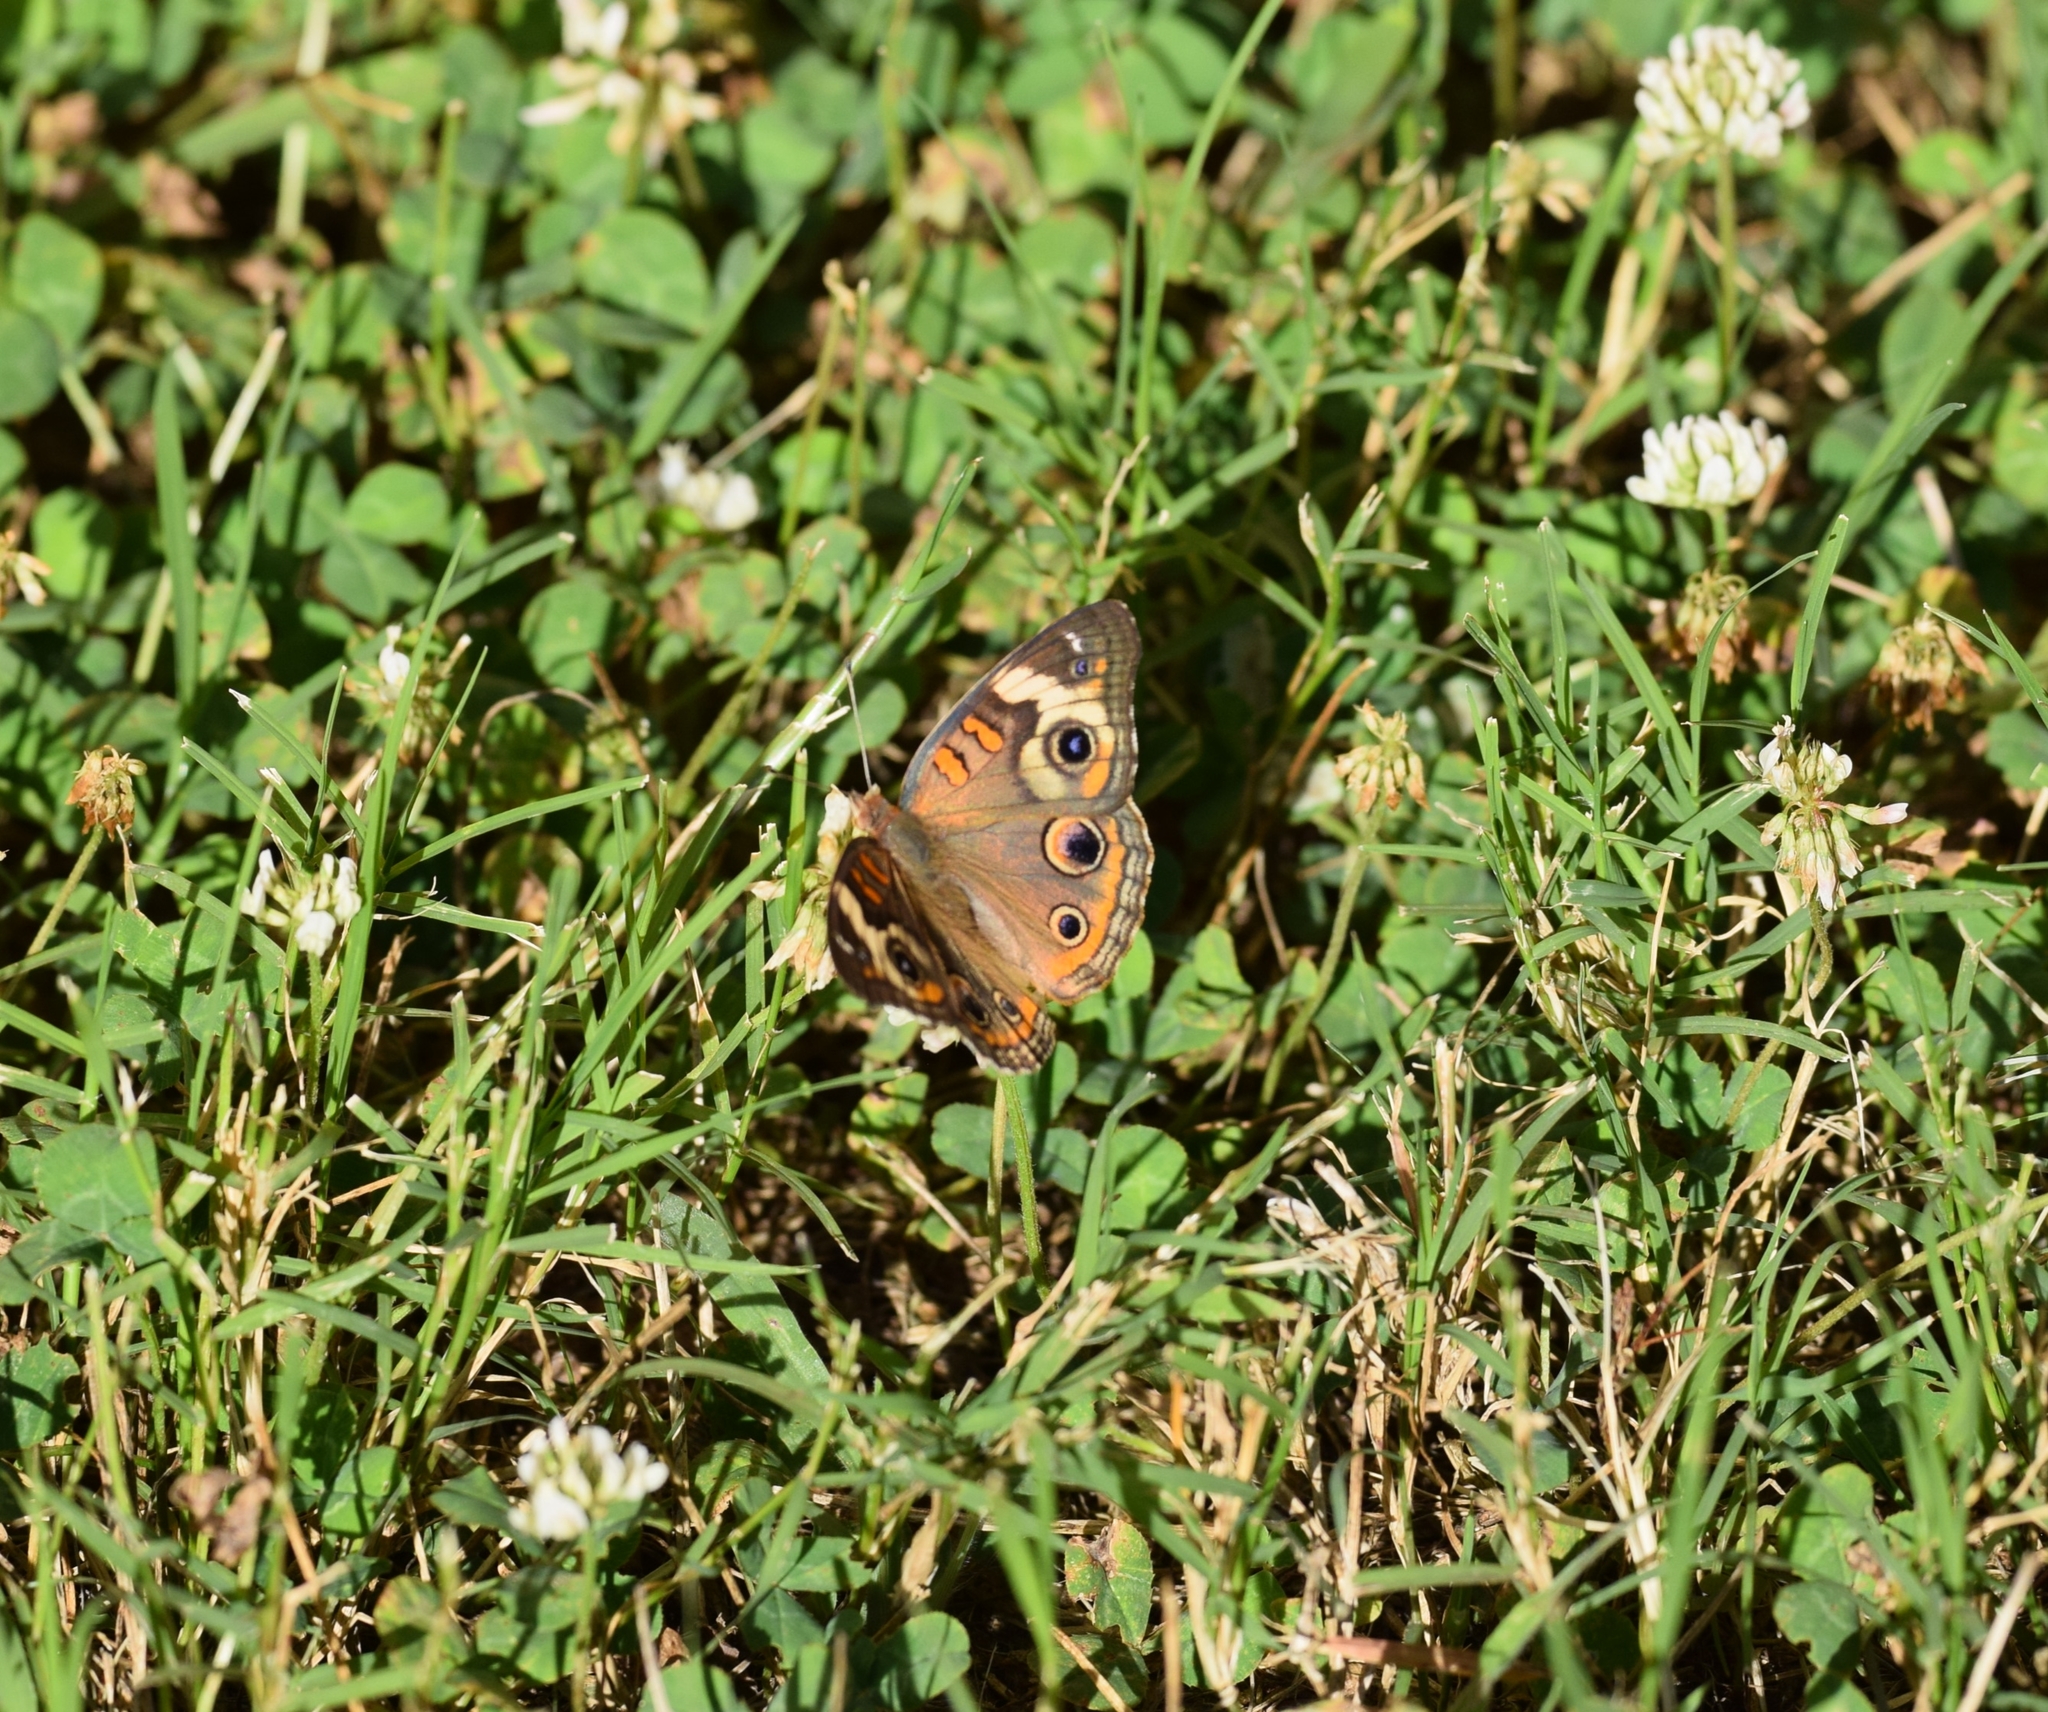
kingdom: Animalia
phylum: Arthropoda
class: Insecta
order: Lepidoptera
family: Nymphalidae
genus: Junonia
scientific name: Junonia coenia
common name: Common buckeye
